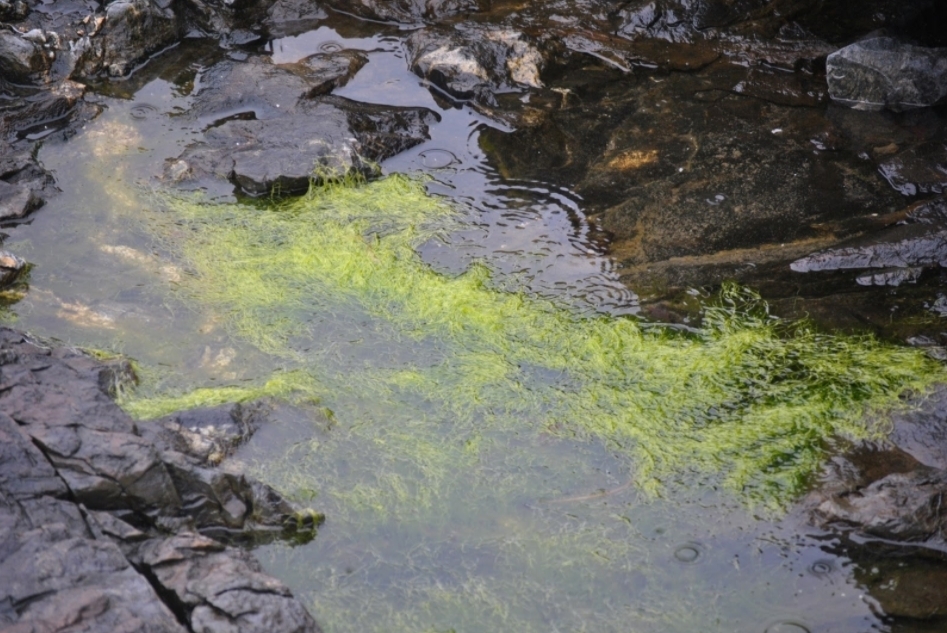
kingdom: Plantae
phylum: Chlorophyta
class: Ulvophyceae
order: Ulvales
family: Ulvaceae
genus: Ulva
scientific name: Ulva intestinalis
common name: Gut weed
